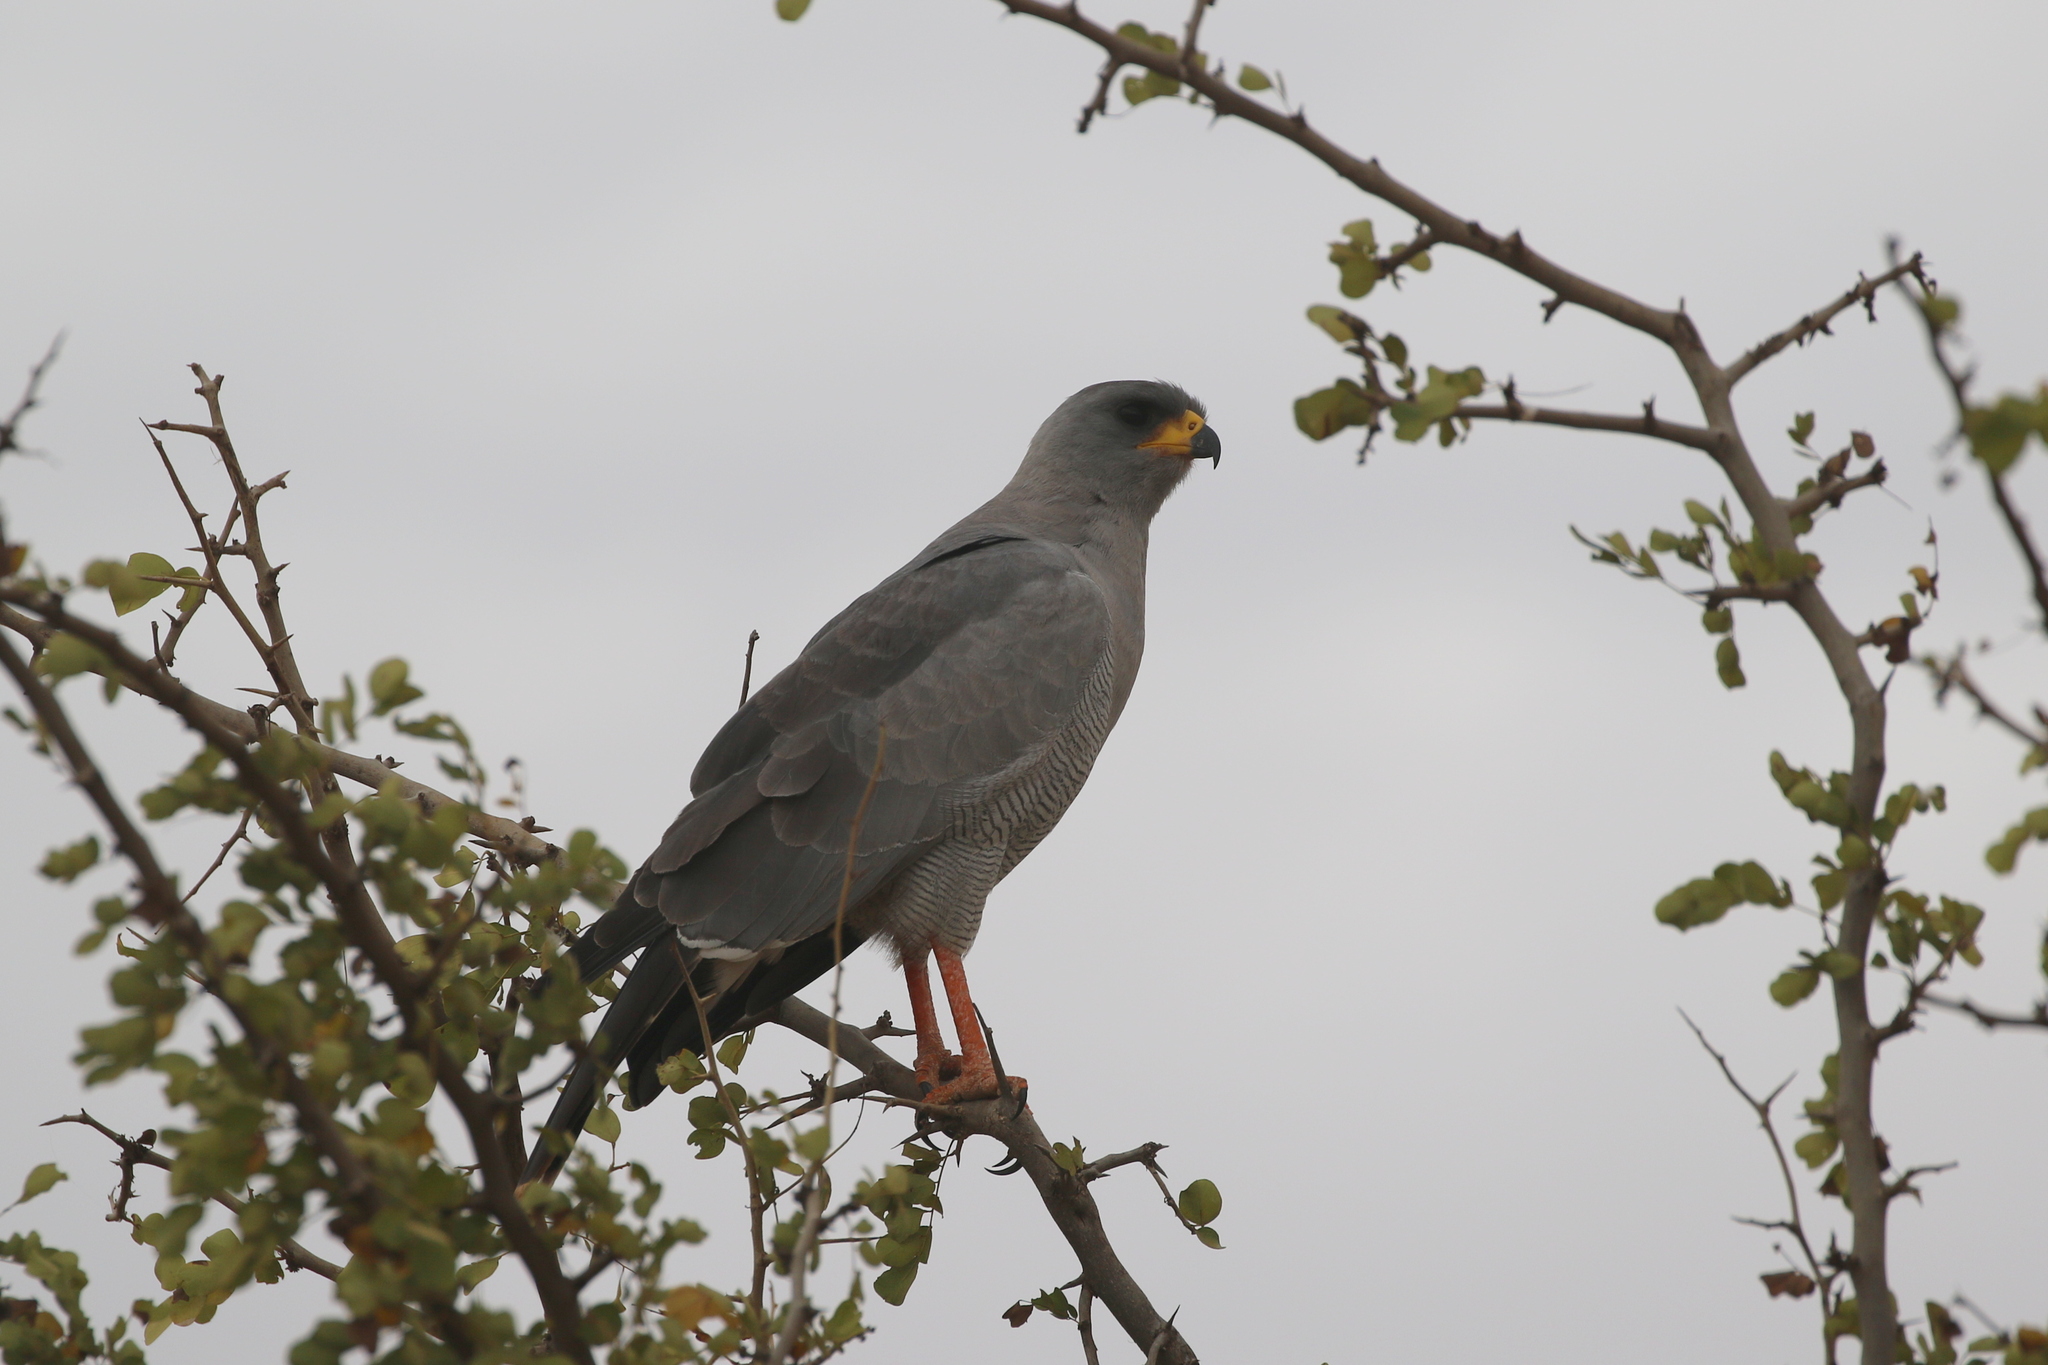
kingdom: Animalia
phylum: Chordata
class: Aves
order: Accipitriformes
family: Accipitridae
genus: Melierax
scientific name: Melierax poliopterus
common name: Eastern chanting goshawk
